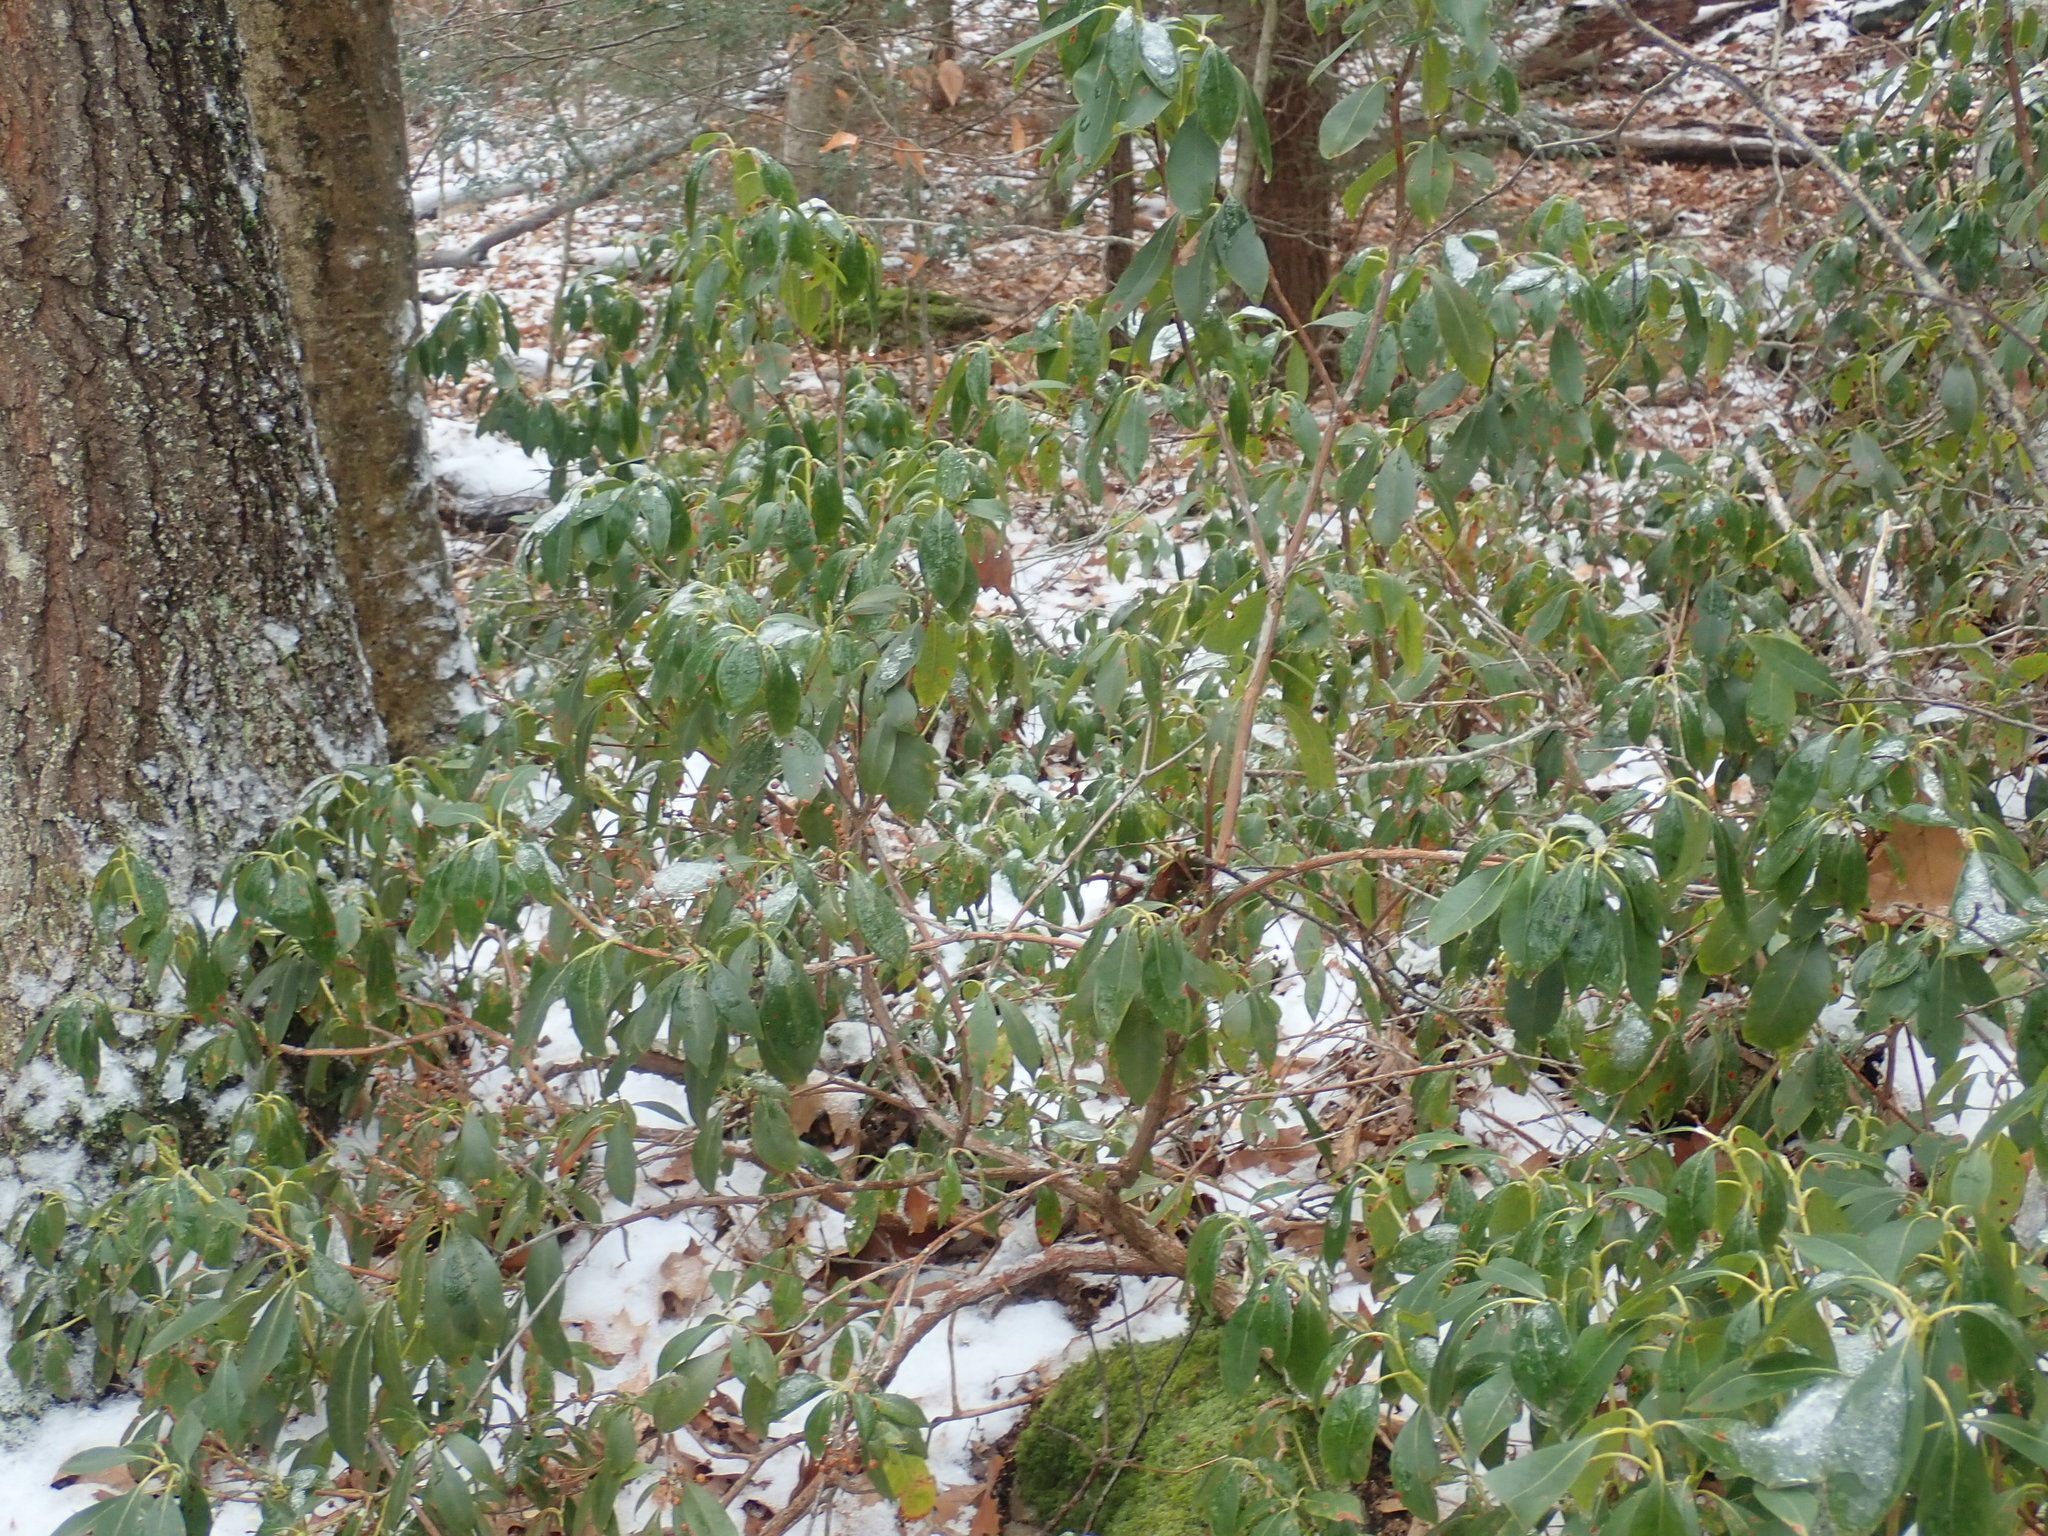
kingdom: Plantae
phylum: Tracheophyta
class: Magnoliopsida
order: Ericales
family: Ericaceae
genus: Kalmia
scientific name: Kalmia latifolia
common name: Mountain-laurel
